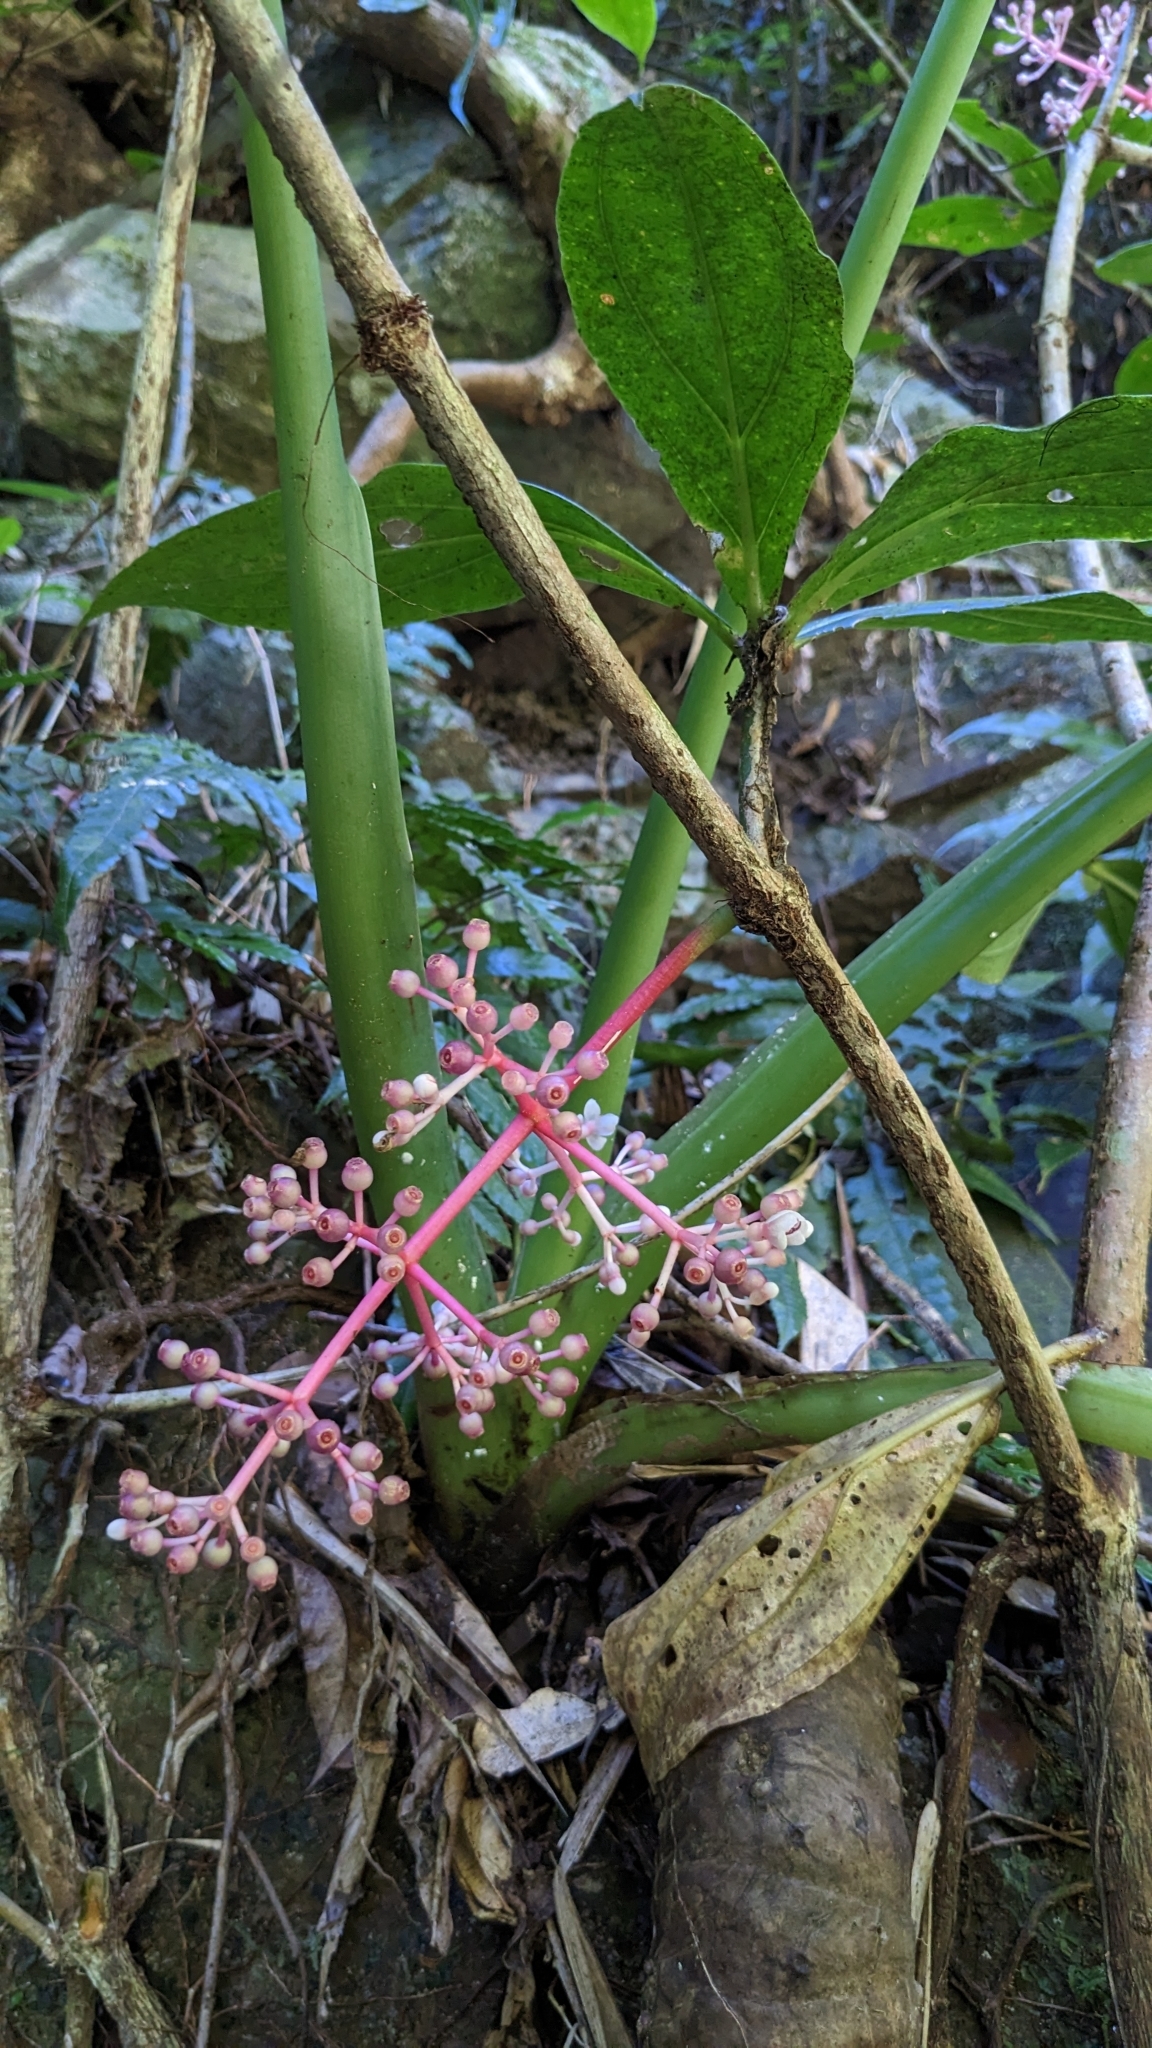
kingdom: Plantae
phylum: Tracheophyta
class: Magnoliopsida
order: Myrtales
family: Melastomataceae
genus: Medinilla
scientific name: Medinilla formosana
